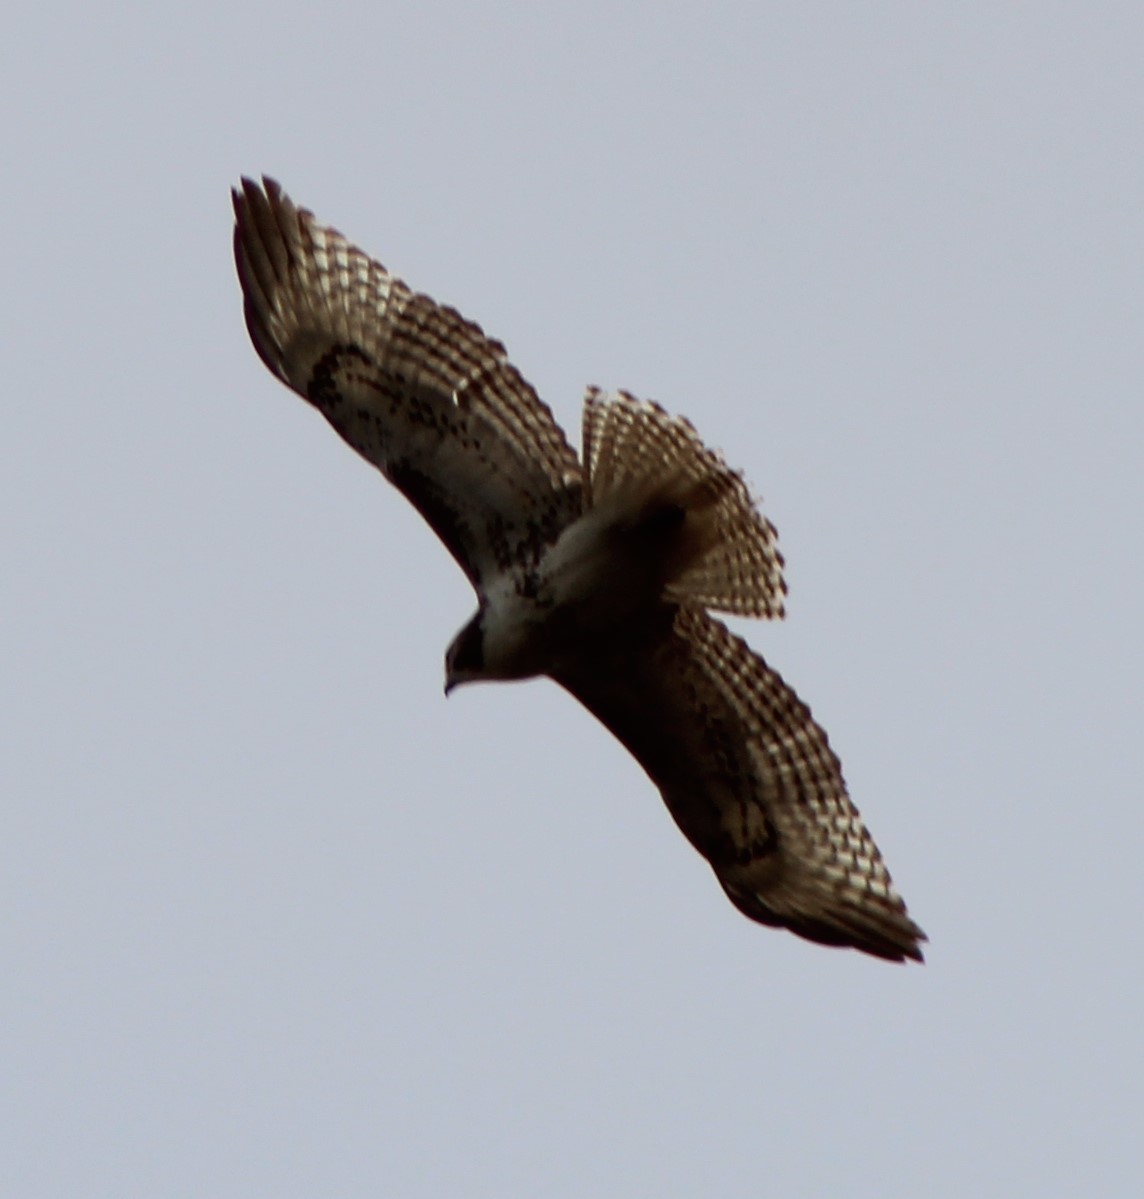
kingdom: Animalia
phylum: Chordata
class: Aves
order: Accipitriformes
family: Accipitridae
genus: Buteo
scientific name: Buteo jamaicensis
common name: Red-tailed hawk
